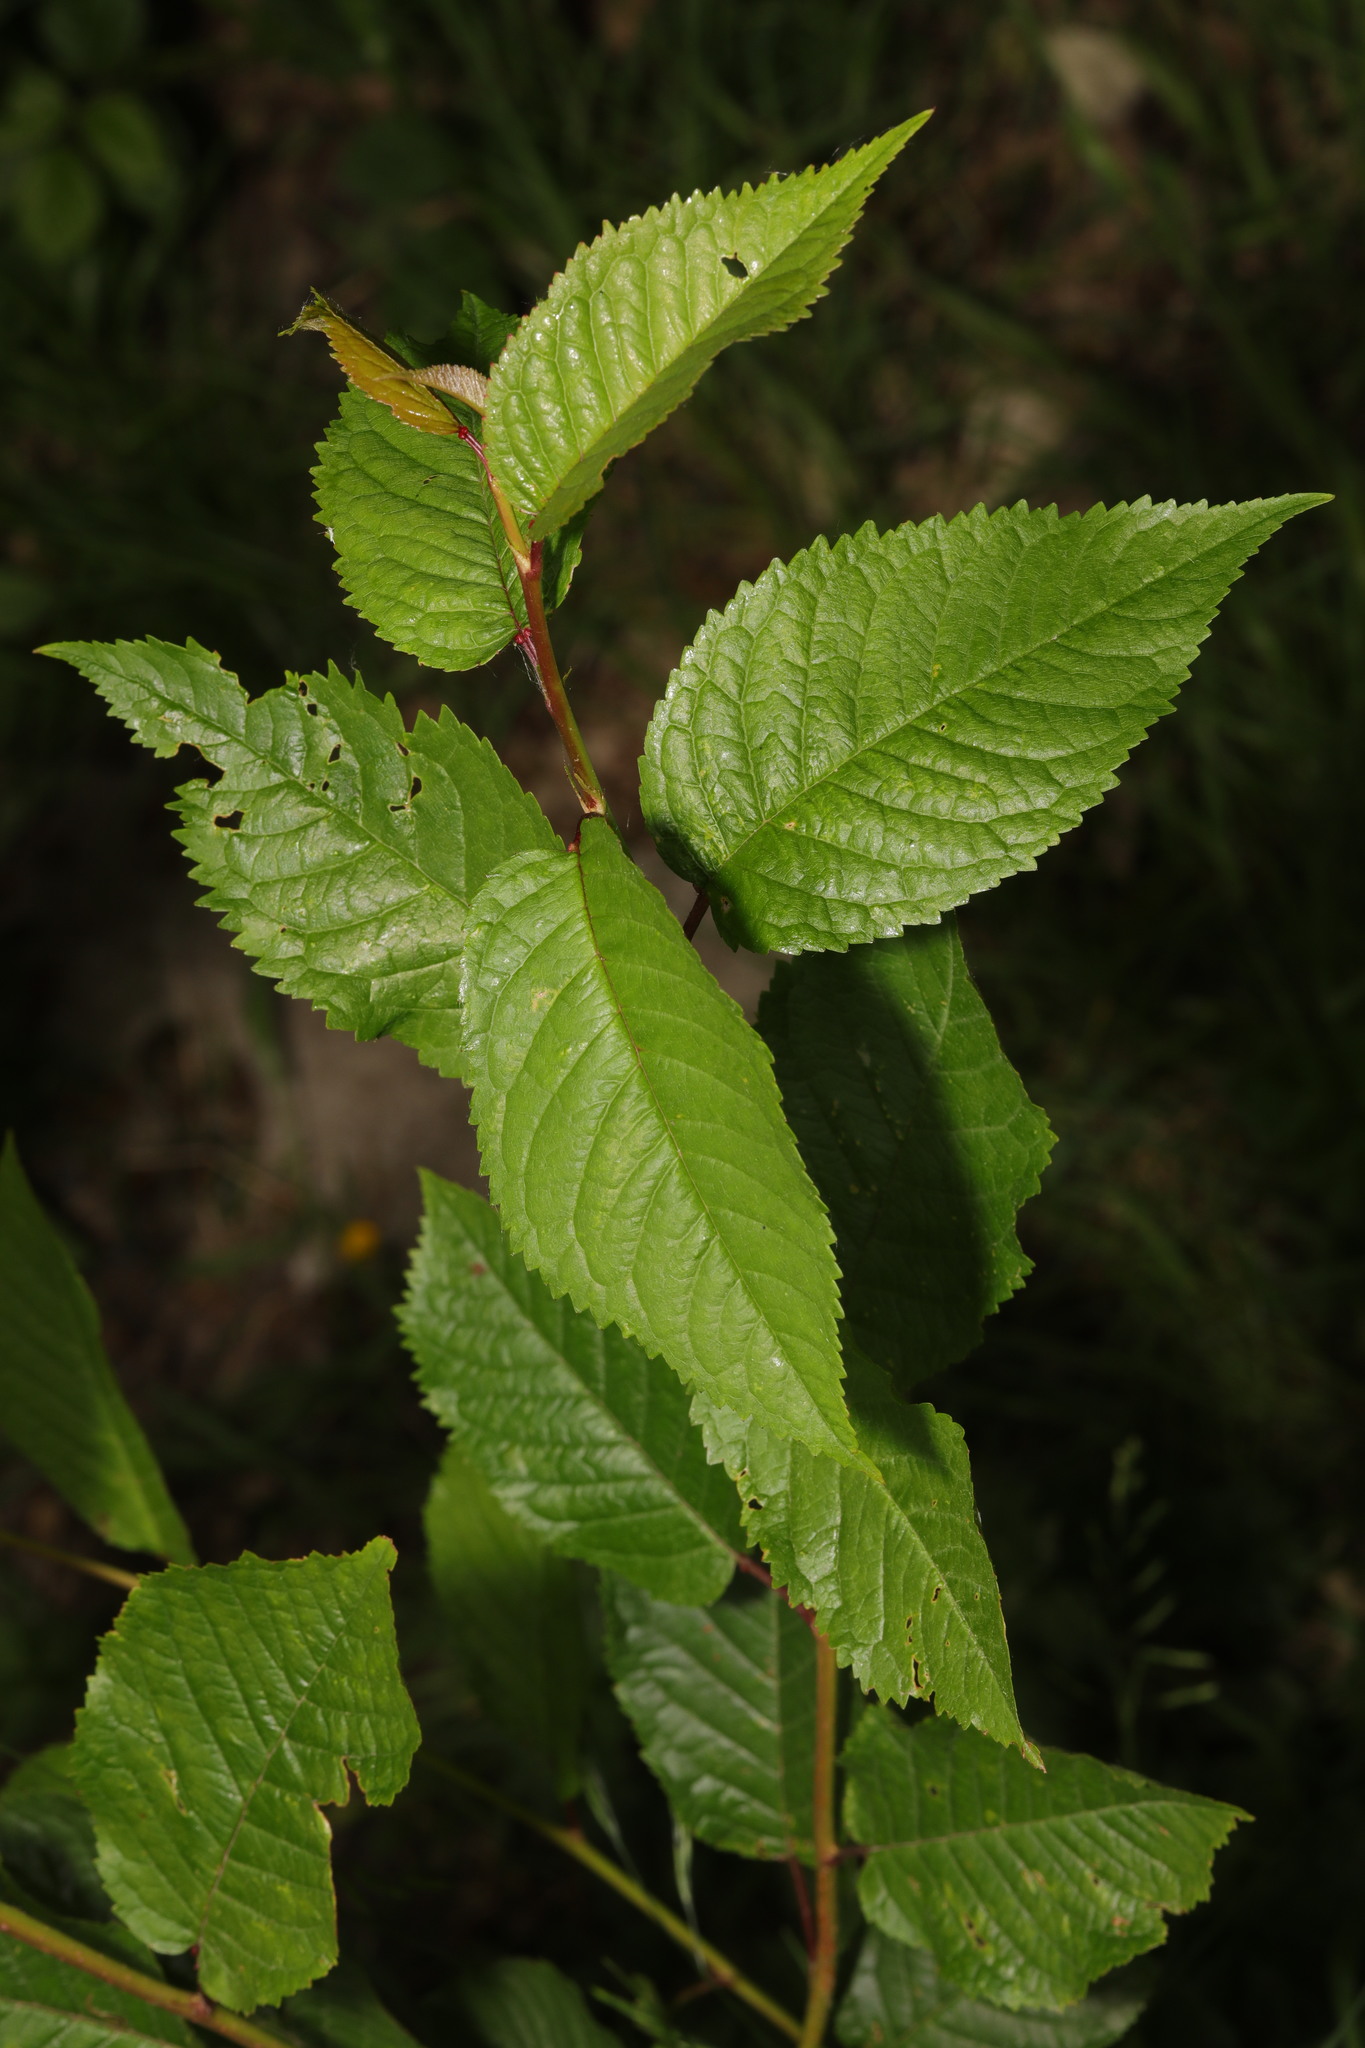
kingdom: Plantae
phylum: Tracheophyta
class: Magnoliopsida
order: Rosales
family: Rosaceae
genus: Prunus
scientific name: Prunus avium
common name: Sweet cherry
